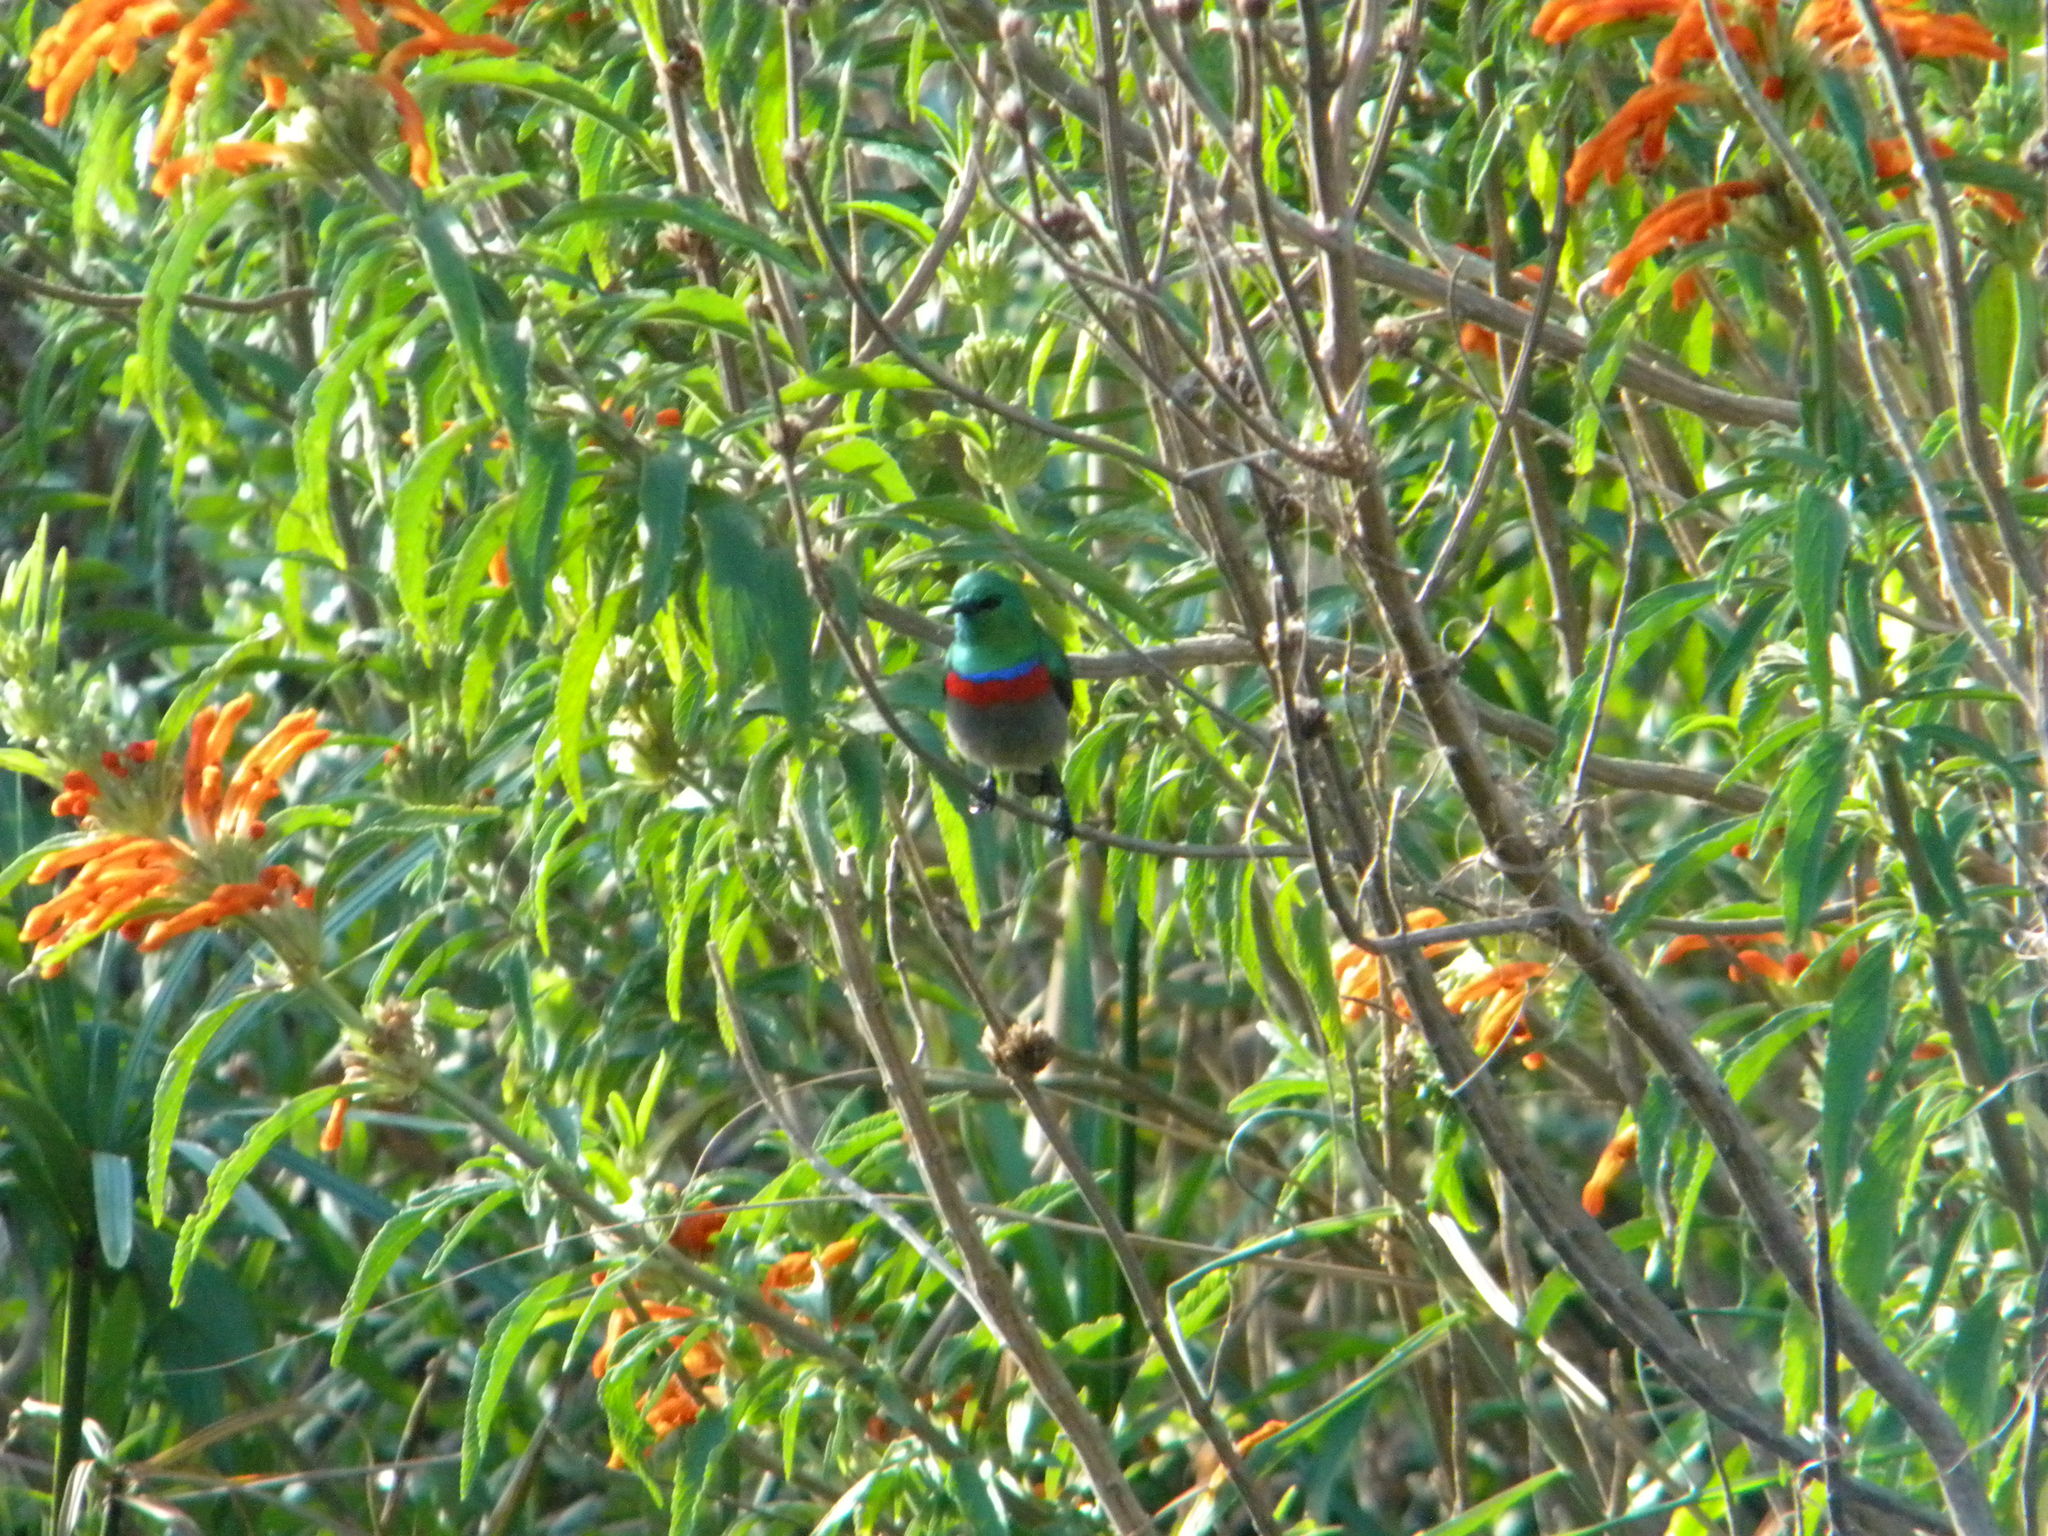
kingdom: Animalia
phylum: Chordata
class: Aves
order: Passeriformes
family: Nectariniidae
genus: Cinnyris
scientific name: Cinnyris chalybeus
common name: Southern double-collared sunbird
